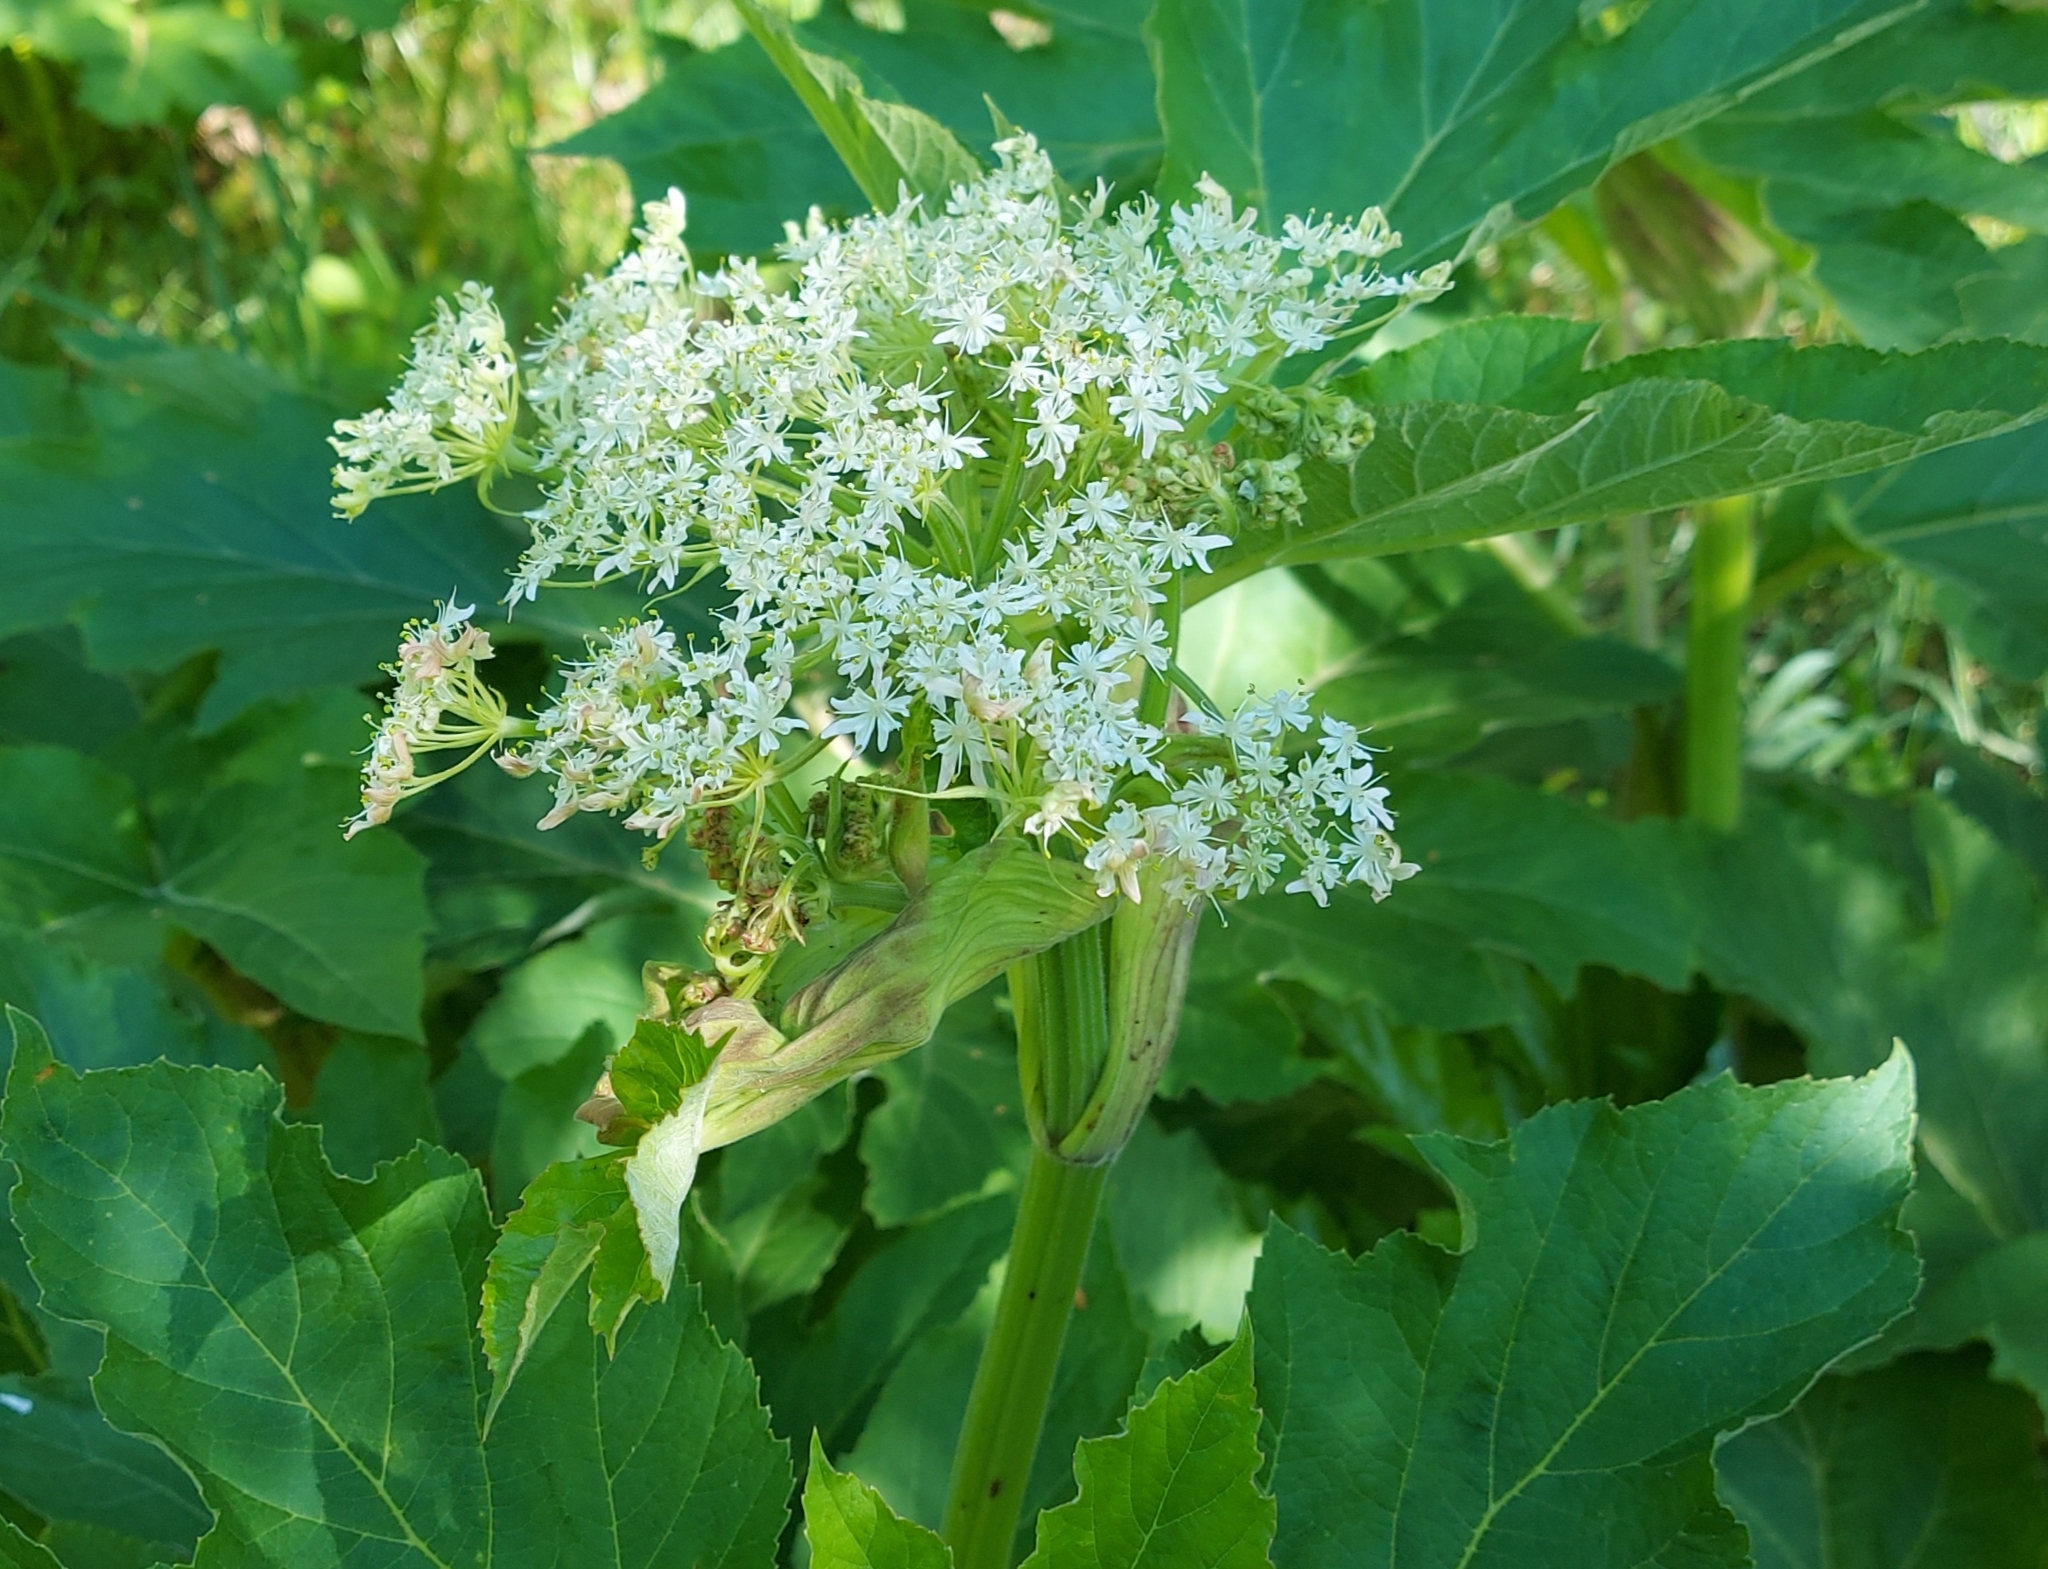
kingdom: Plantae
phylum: Tracheophyta
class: Magnoliopsida
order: Apiales
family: Apiaceae
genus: Heracleum
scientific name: Heracleum dissectum
